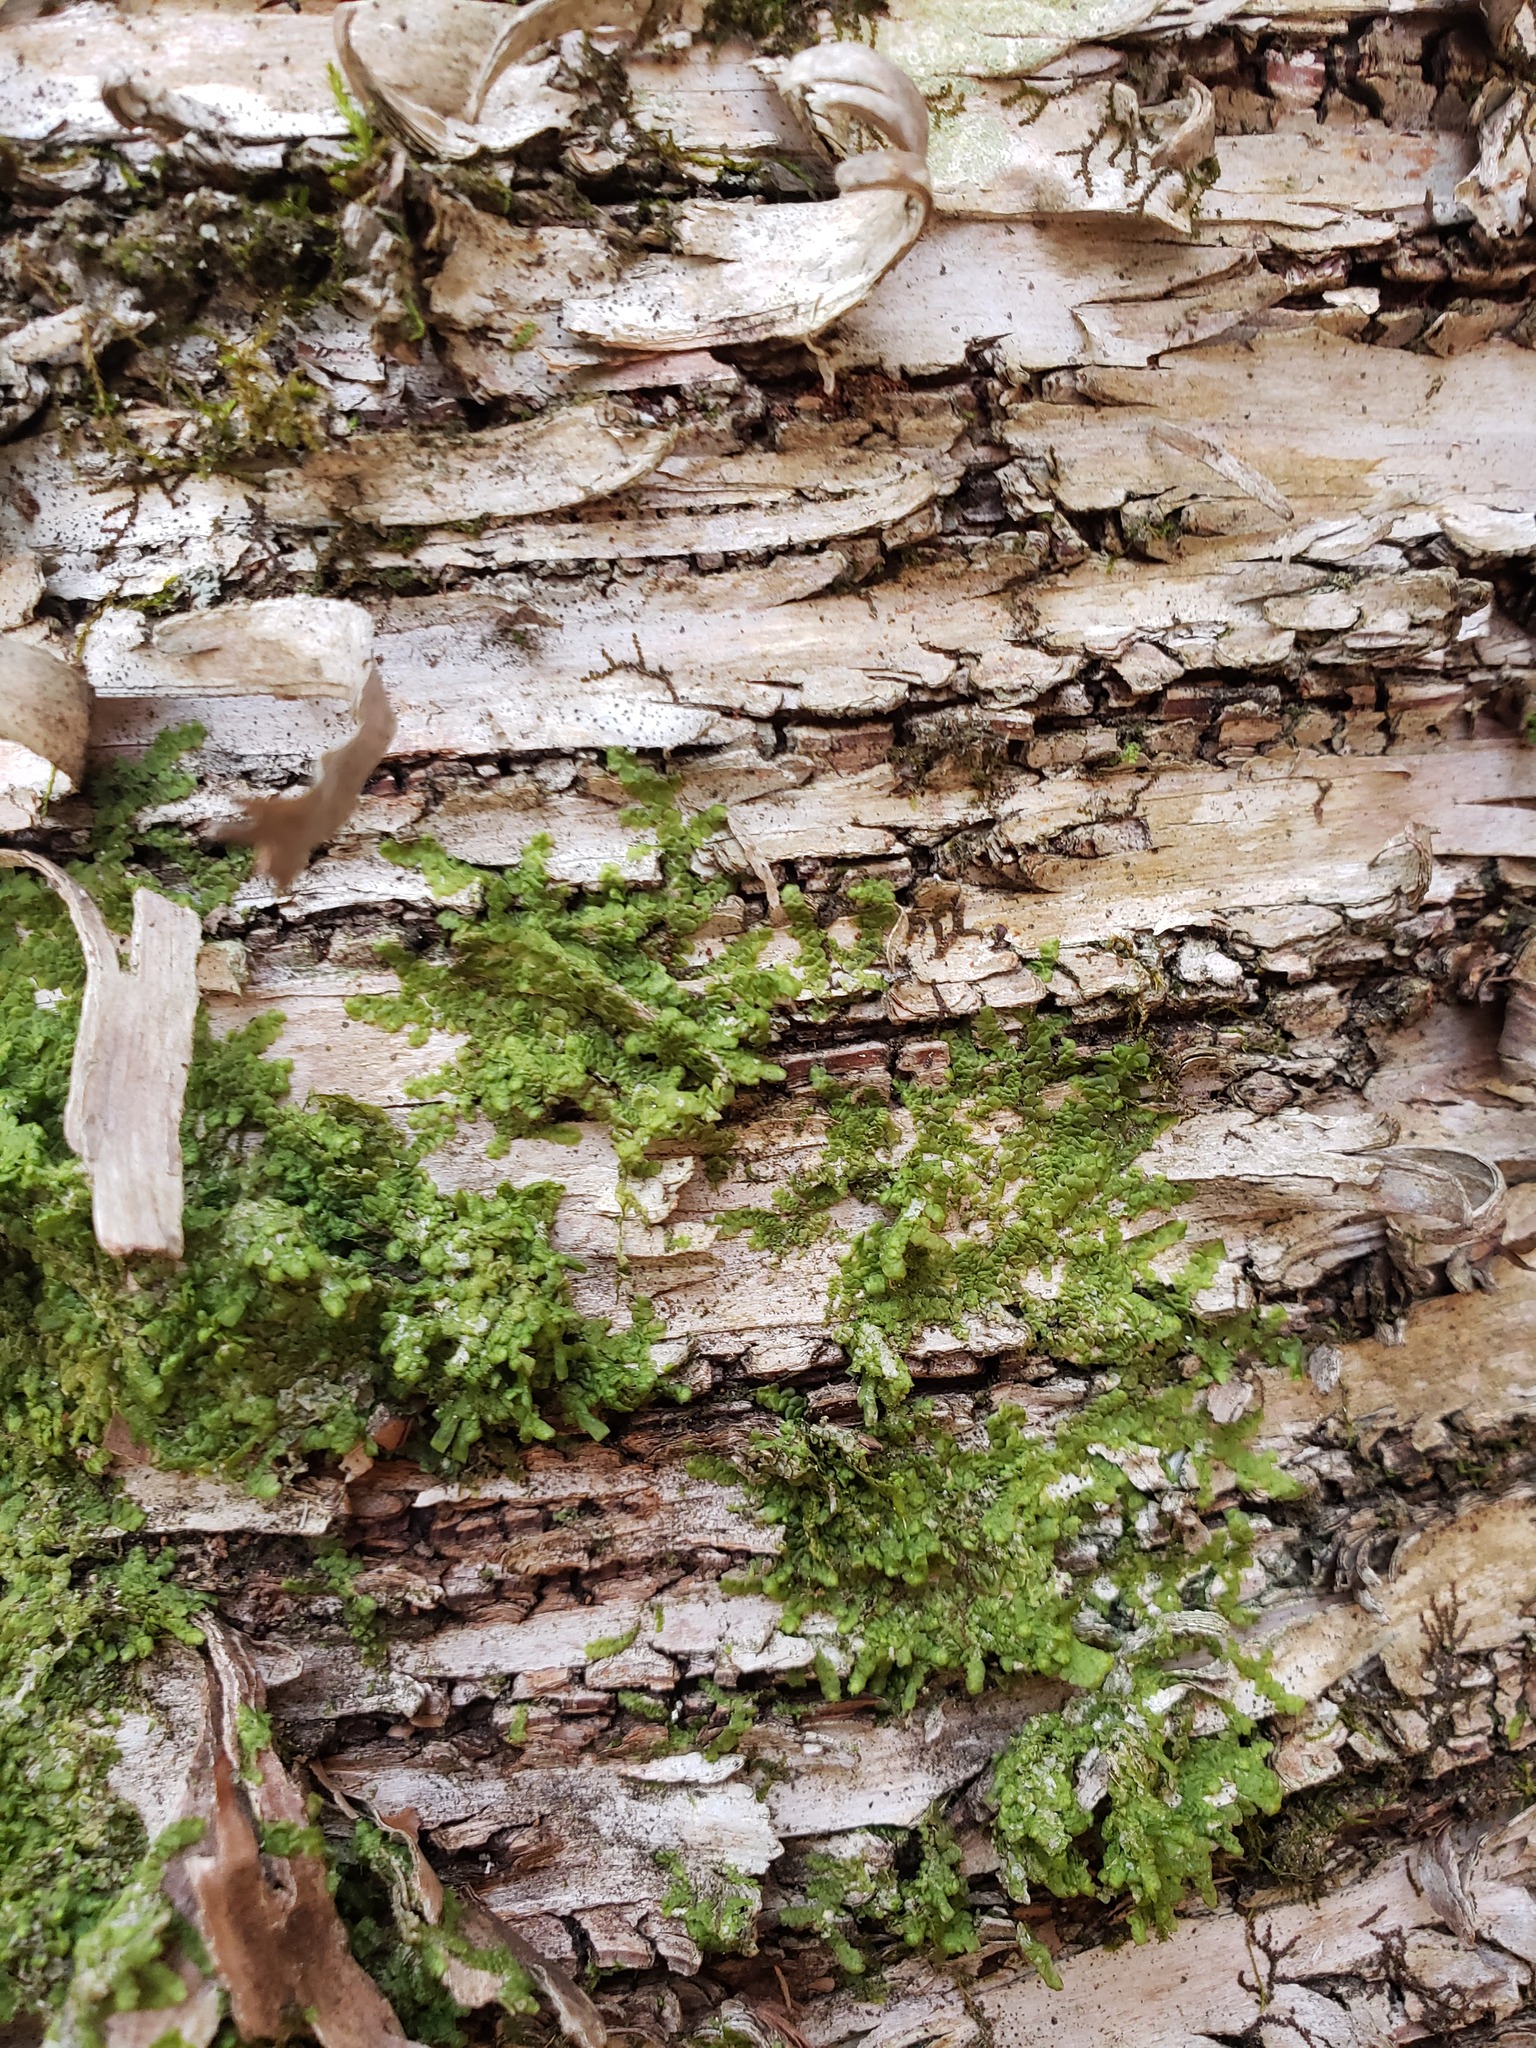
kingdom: Plantae
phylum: Marchantiophyta
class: Jungermanniopsida
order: Porellales
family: Radulaceae
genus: Radula
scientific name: Radula complanata
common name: Flat-leaved scalewort
